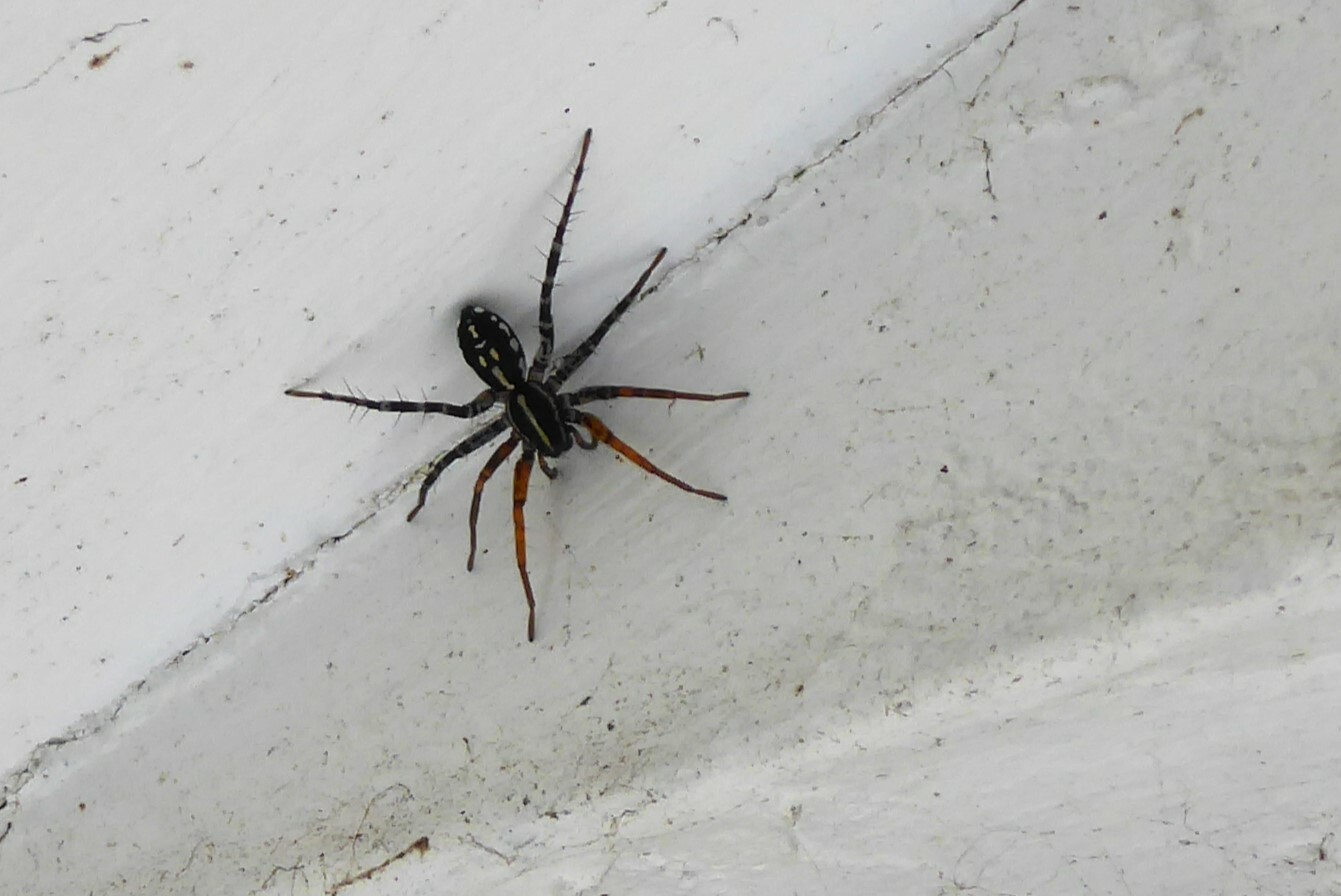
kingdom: Animalia
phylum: Arthropoda
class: Arachnida
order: Araneae
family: Corinnidae
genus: Nyssus
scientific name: Nyssus coloripes
